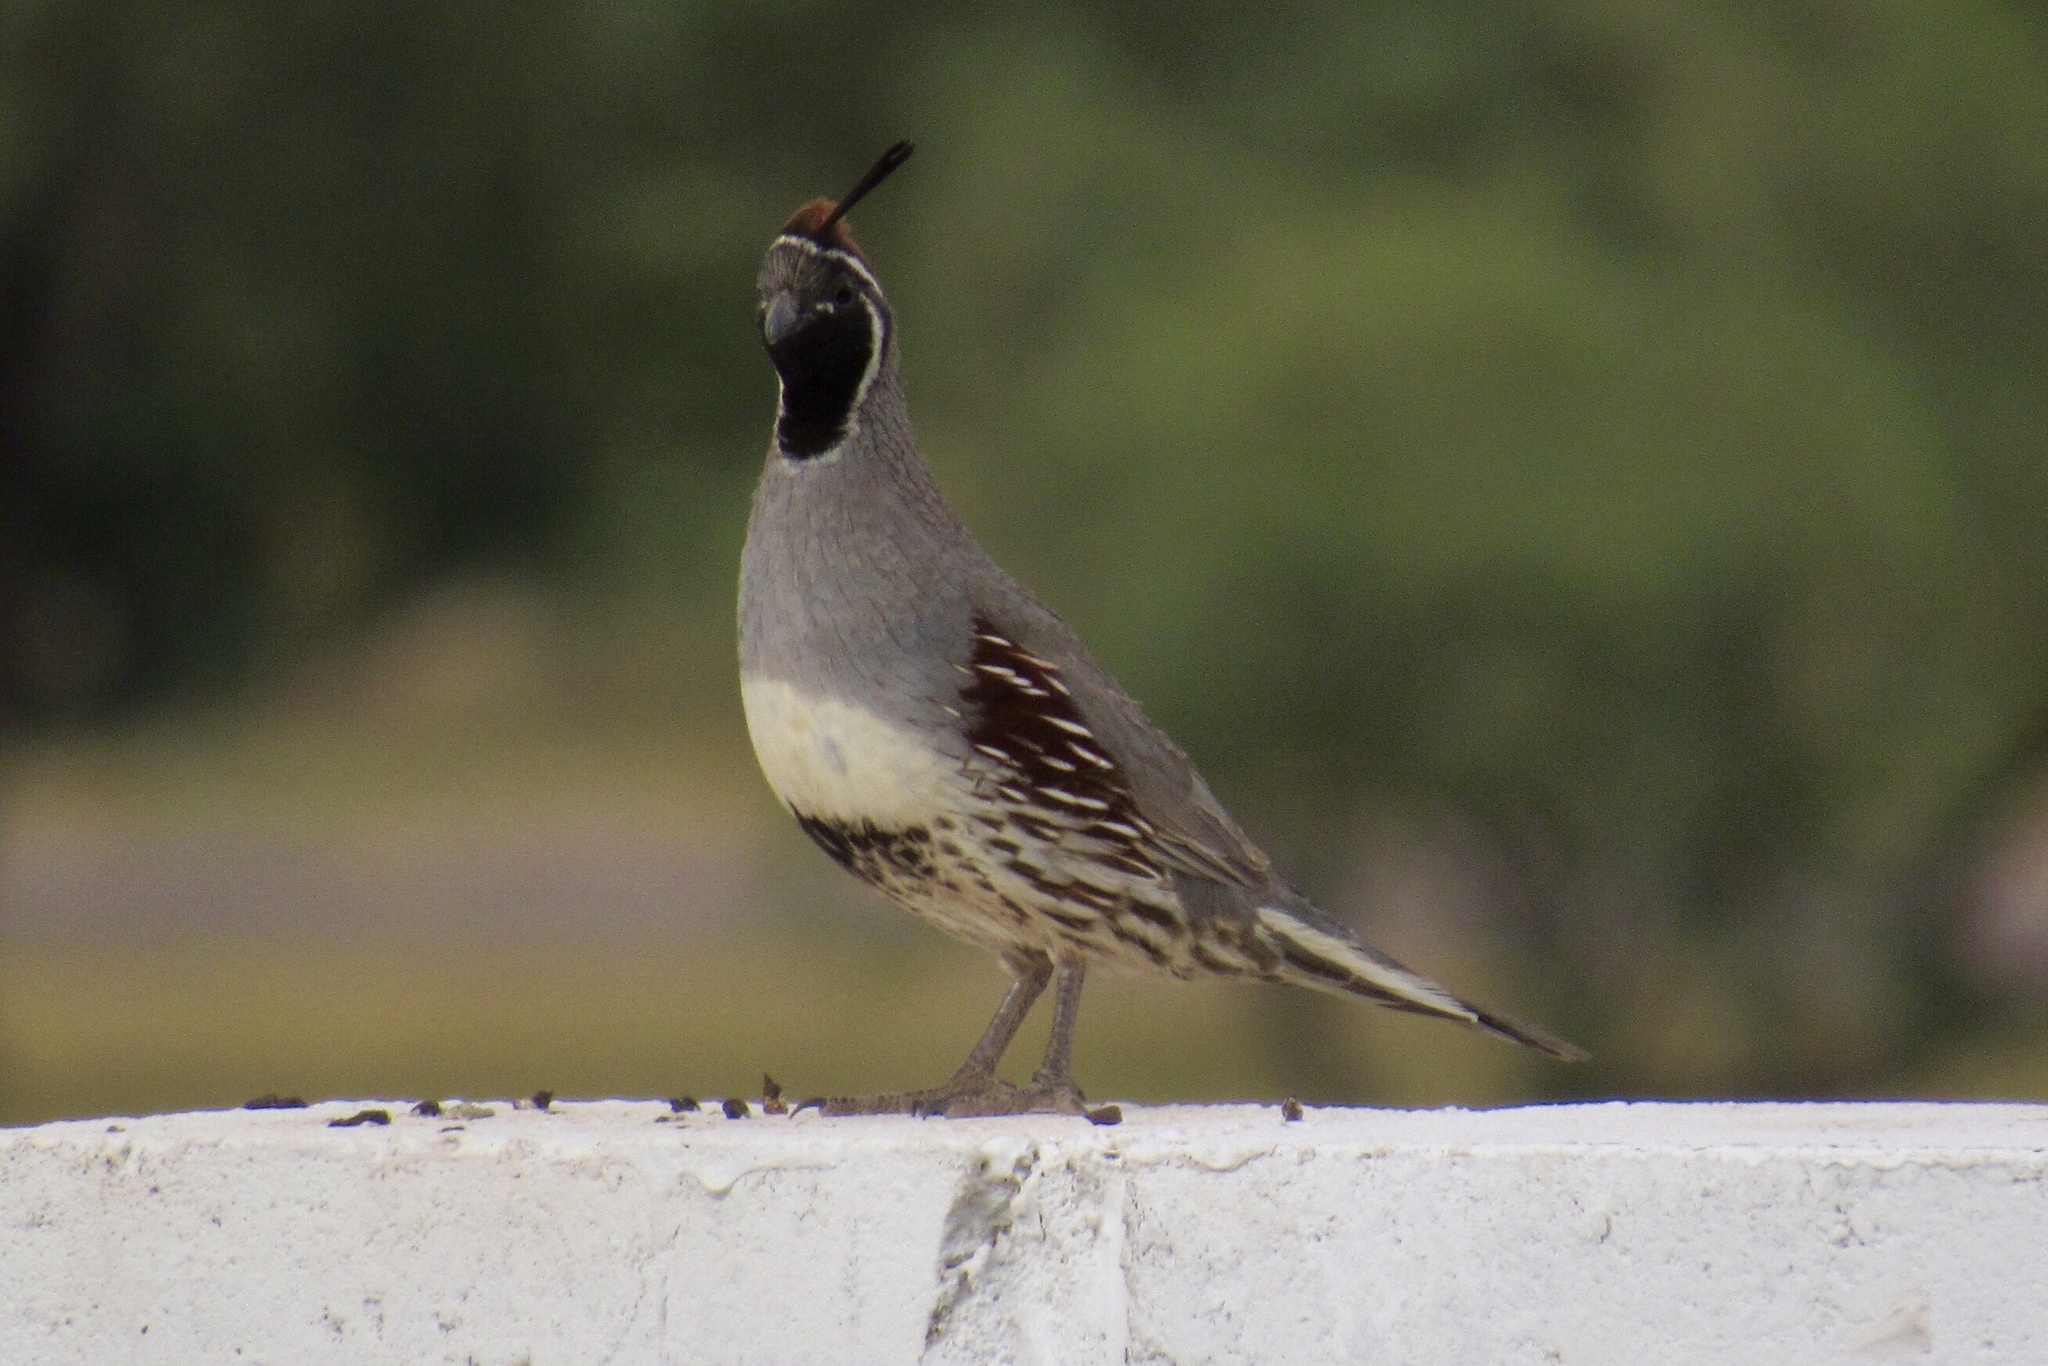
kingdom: Animalia
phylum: Chordata
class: Aves
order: Galliformes
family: Odontophoridae
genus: Callipepla
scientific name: Callipepla gambelii
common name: Gambel's quail
